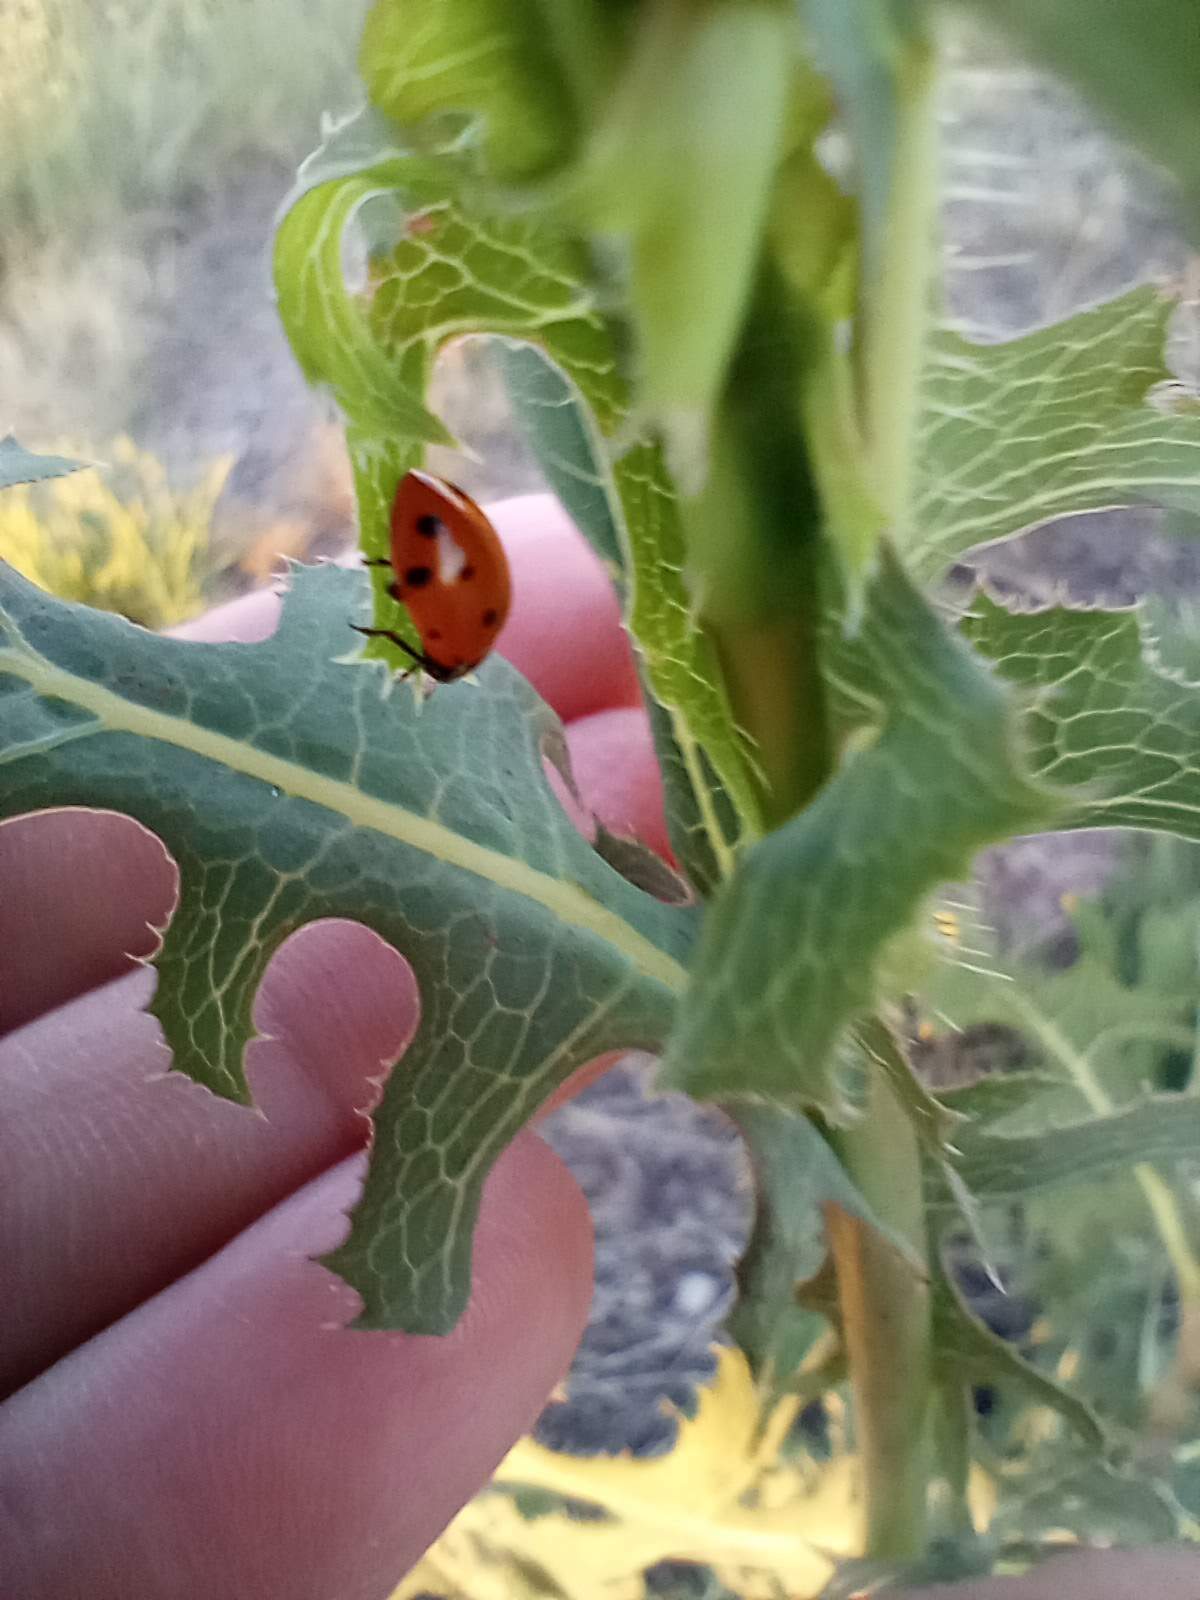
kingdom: Plantae
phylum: Tracheophyta
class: Magnoliopsida
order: Asterales
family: Asteraceae
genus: Lactuca
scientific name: Lactuca serriola
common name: Prickly lettuce
